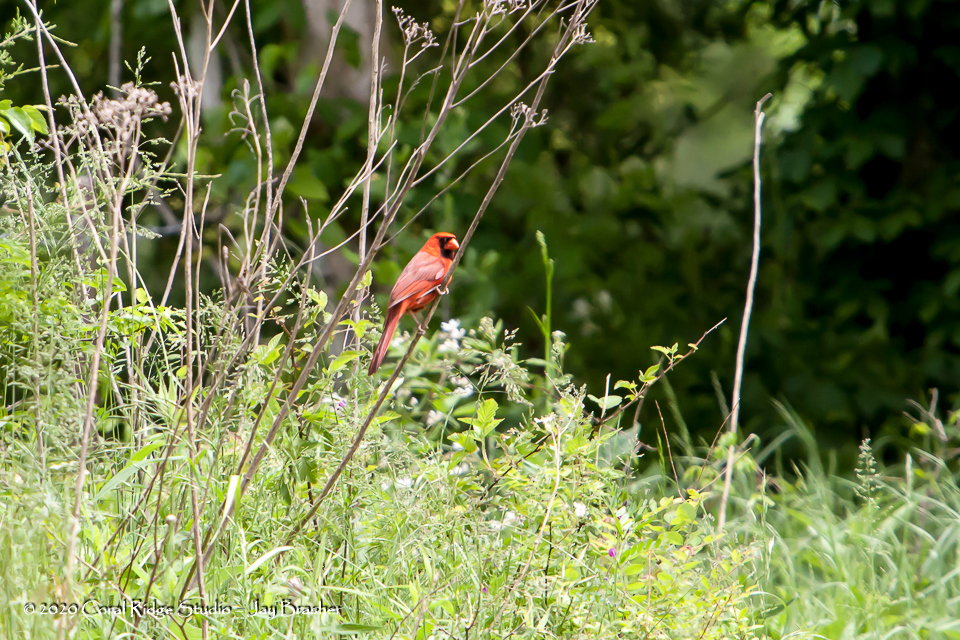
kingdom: Animalia
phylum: Chordata
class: Aves
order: Passeriformes
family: Cardinalidae
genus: Cardinalis
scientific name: Cardinalis cardinalis
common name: Northern cardinal
